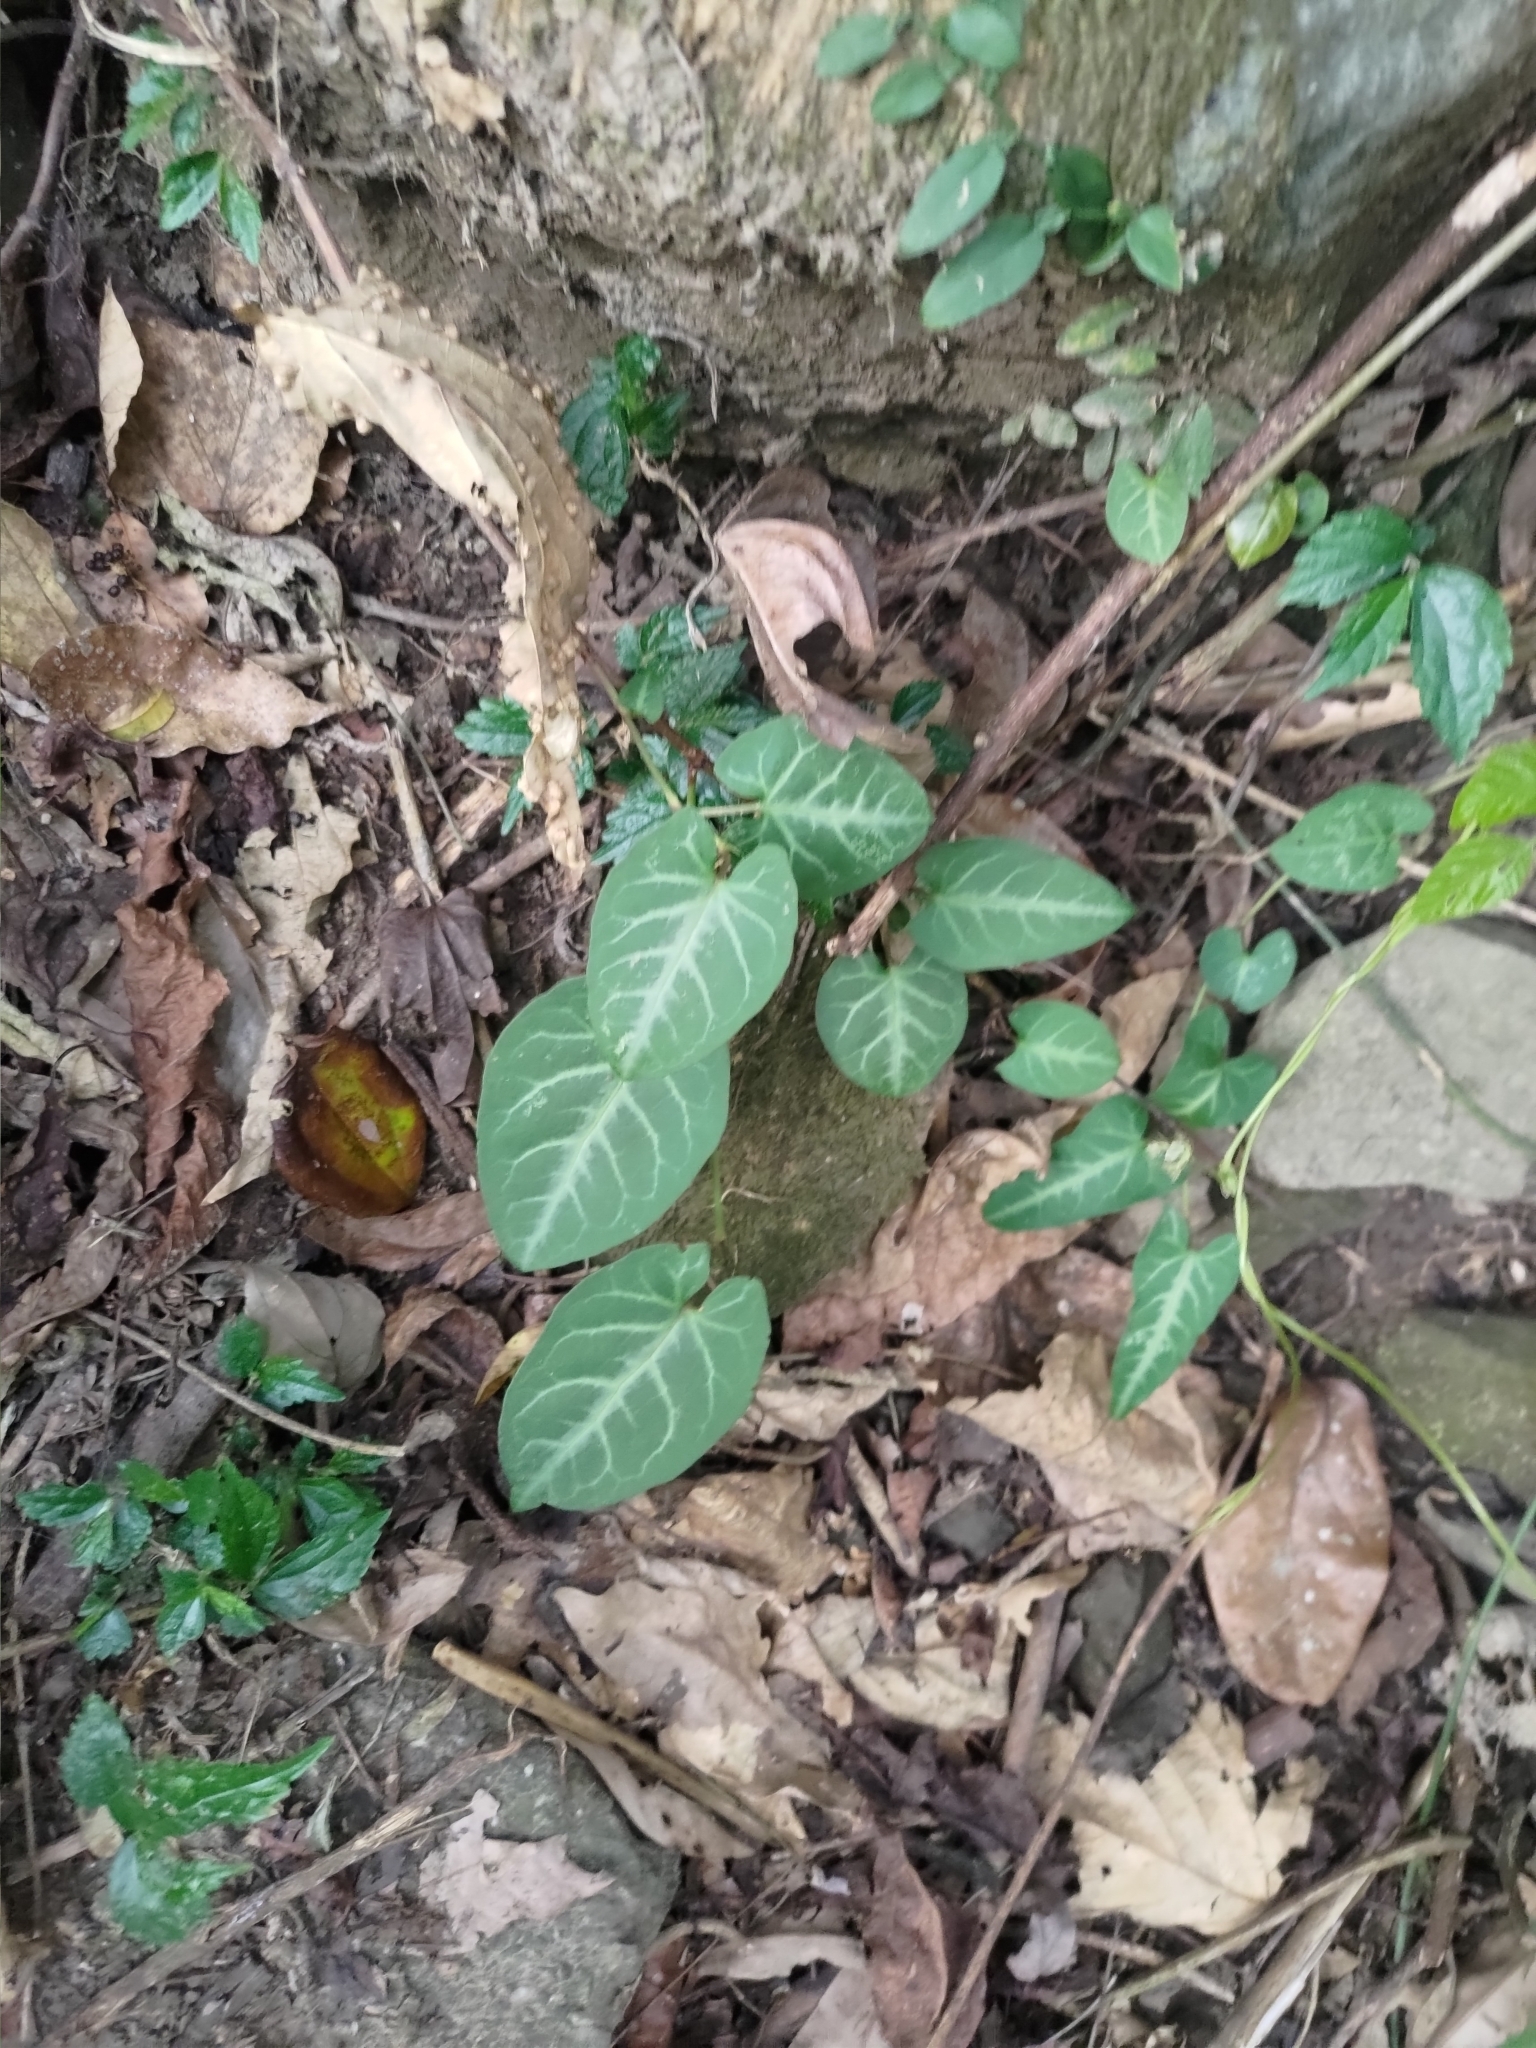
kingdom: Plantae
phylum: Tracheophyta
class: Magnoliopsida
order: Caryophyllales
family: Polygonaceae
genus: Reynoutria
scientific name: Reynoutria multiflora
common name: Chinese fleeceflower
